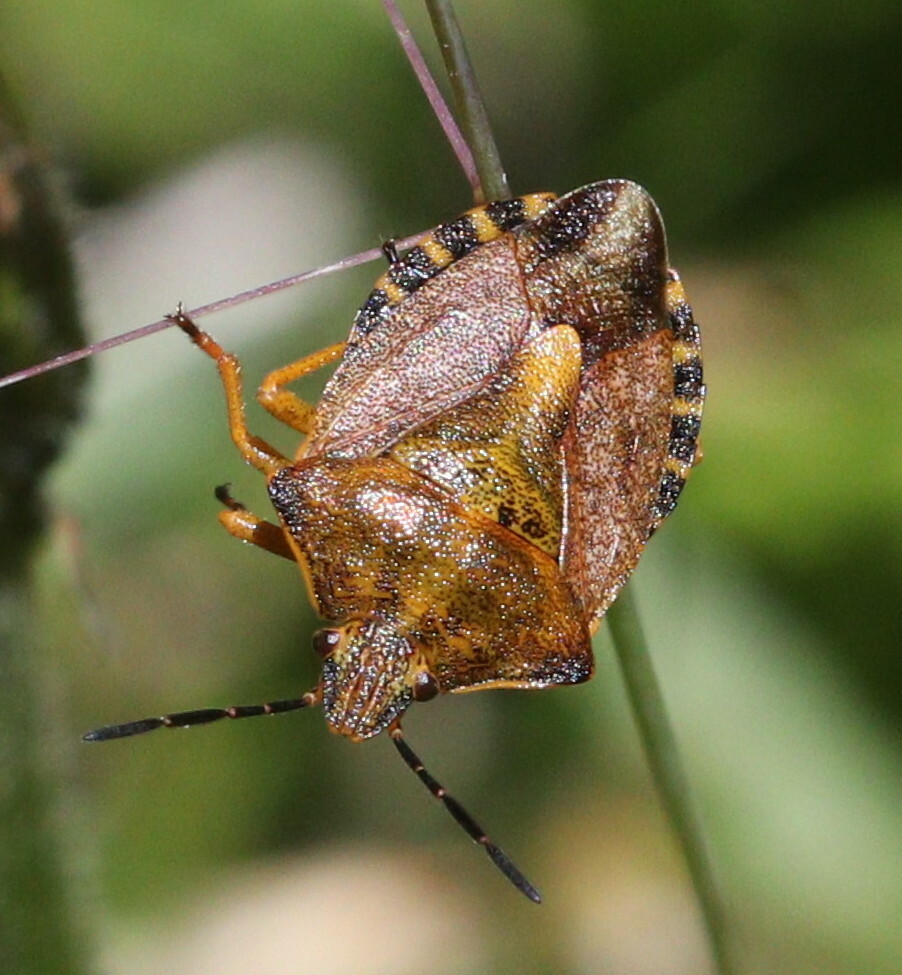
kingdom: Animalia
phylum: Arthropoda
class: Insecta
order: Hemiptera
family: Pentatomidae
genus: Carpocoris
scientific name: Carpocoris purpureipennis
